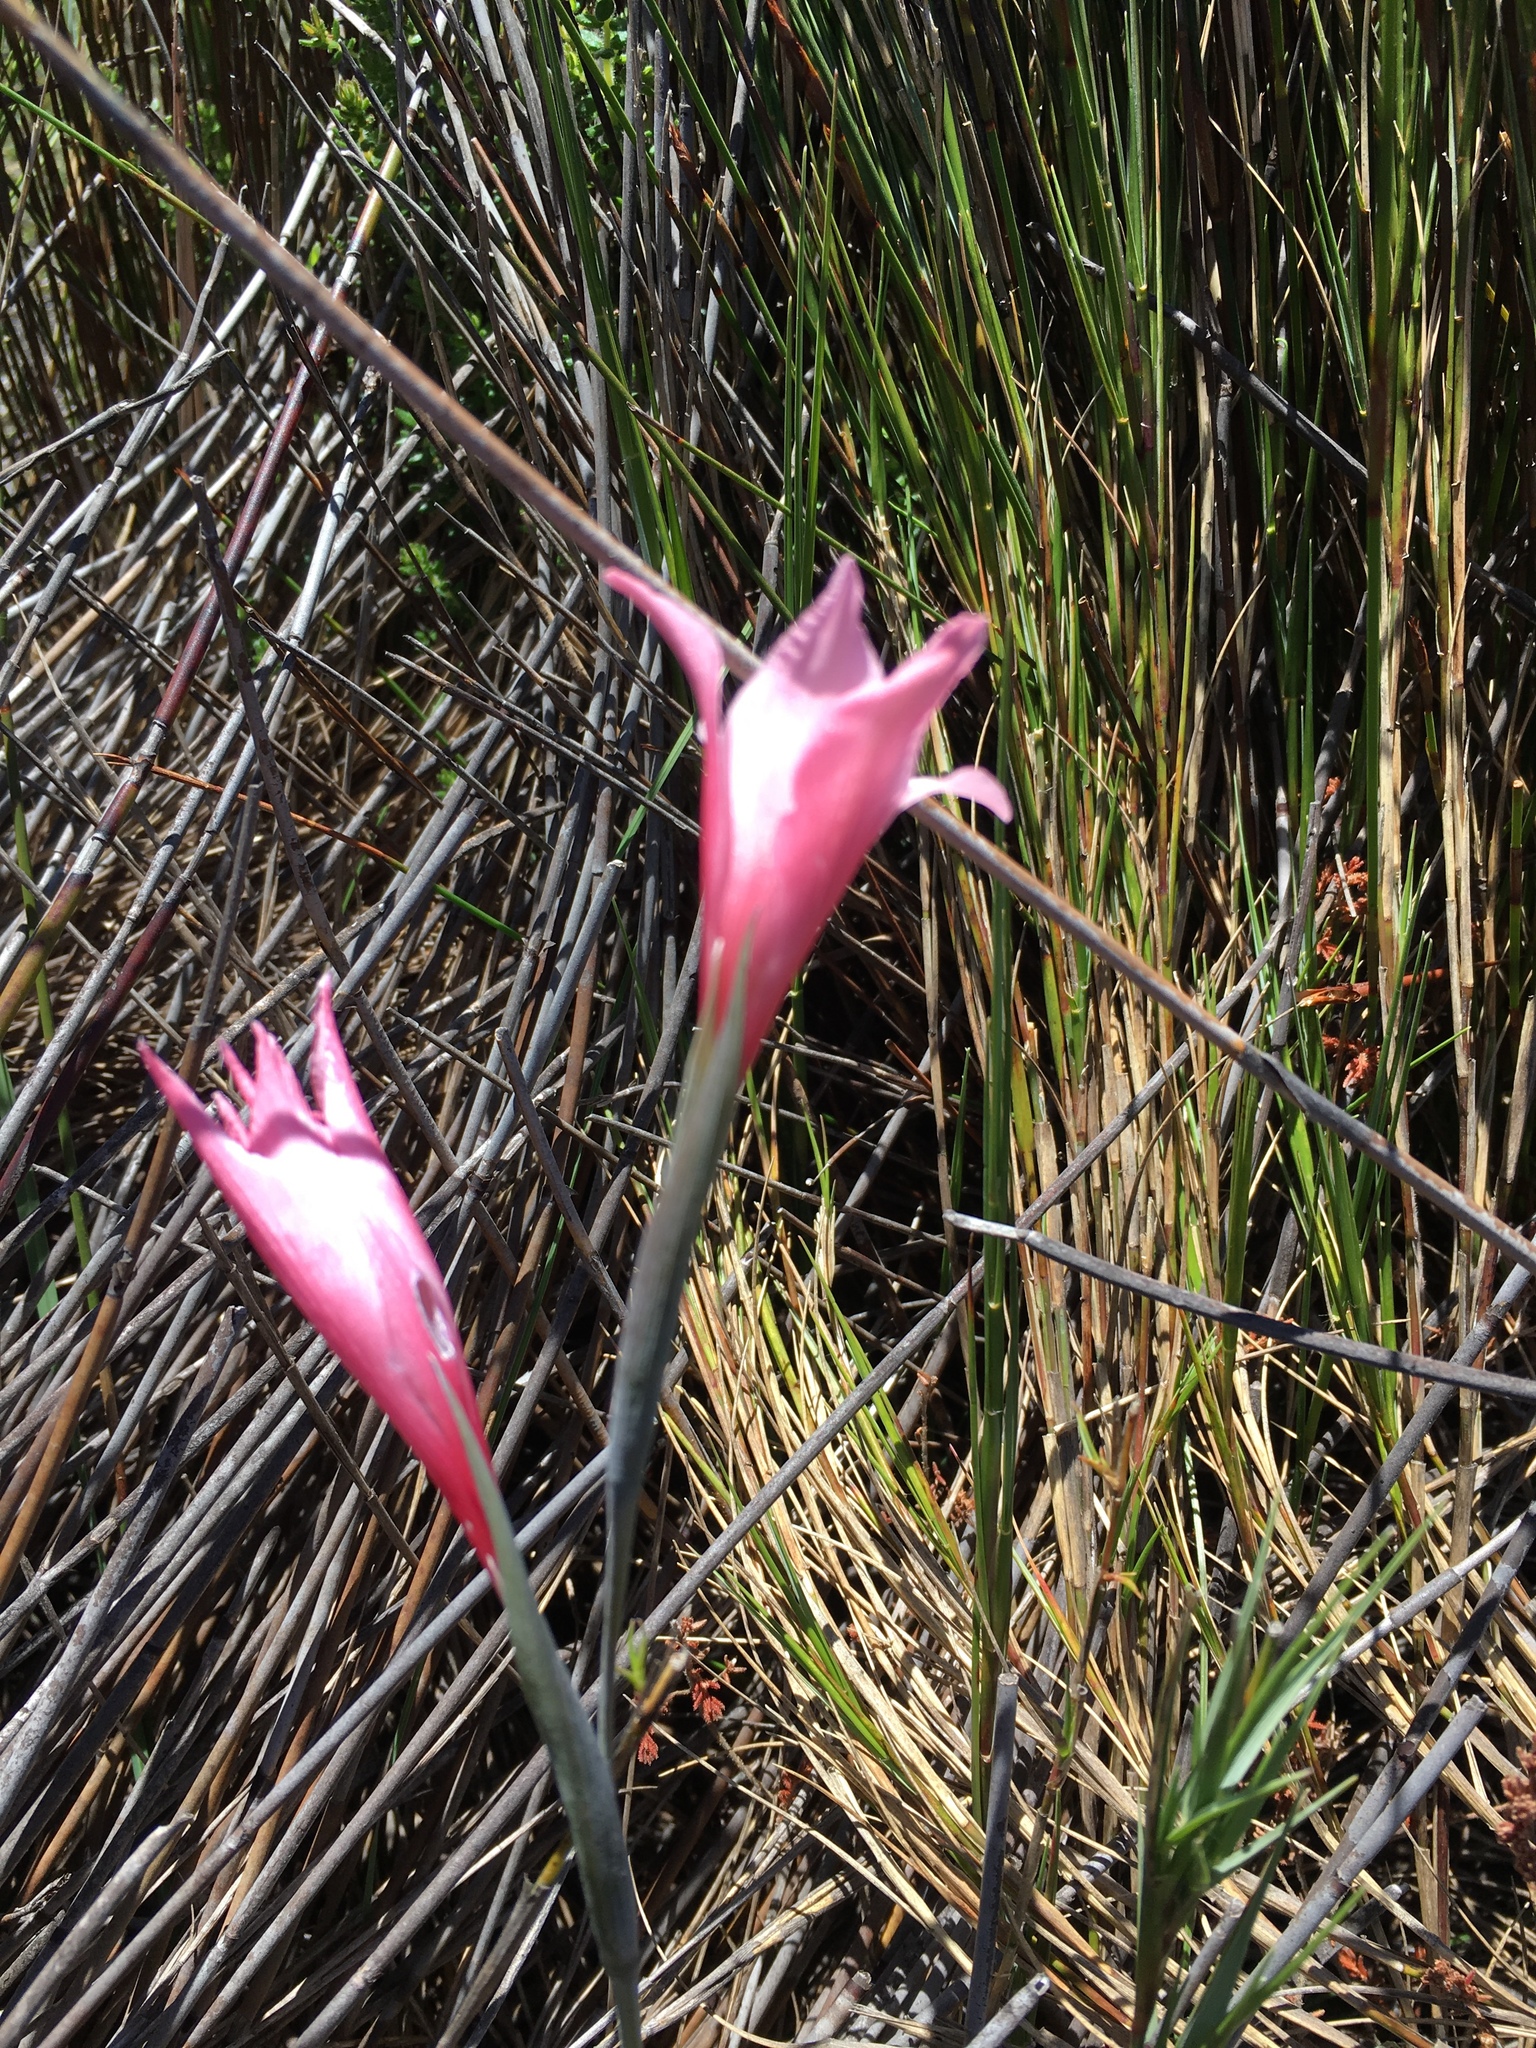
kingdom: Plantae
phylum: Tracheophyta
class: Liliopsida
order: Asparagales
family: Iridaceae
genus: Gladiolus
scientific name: Gladiolus pappei
